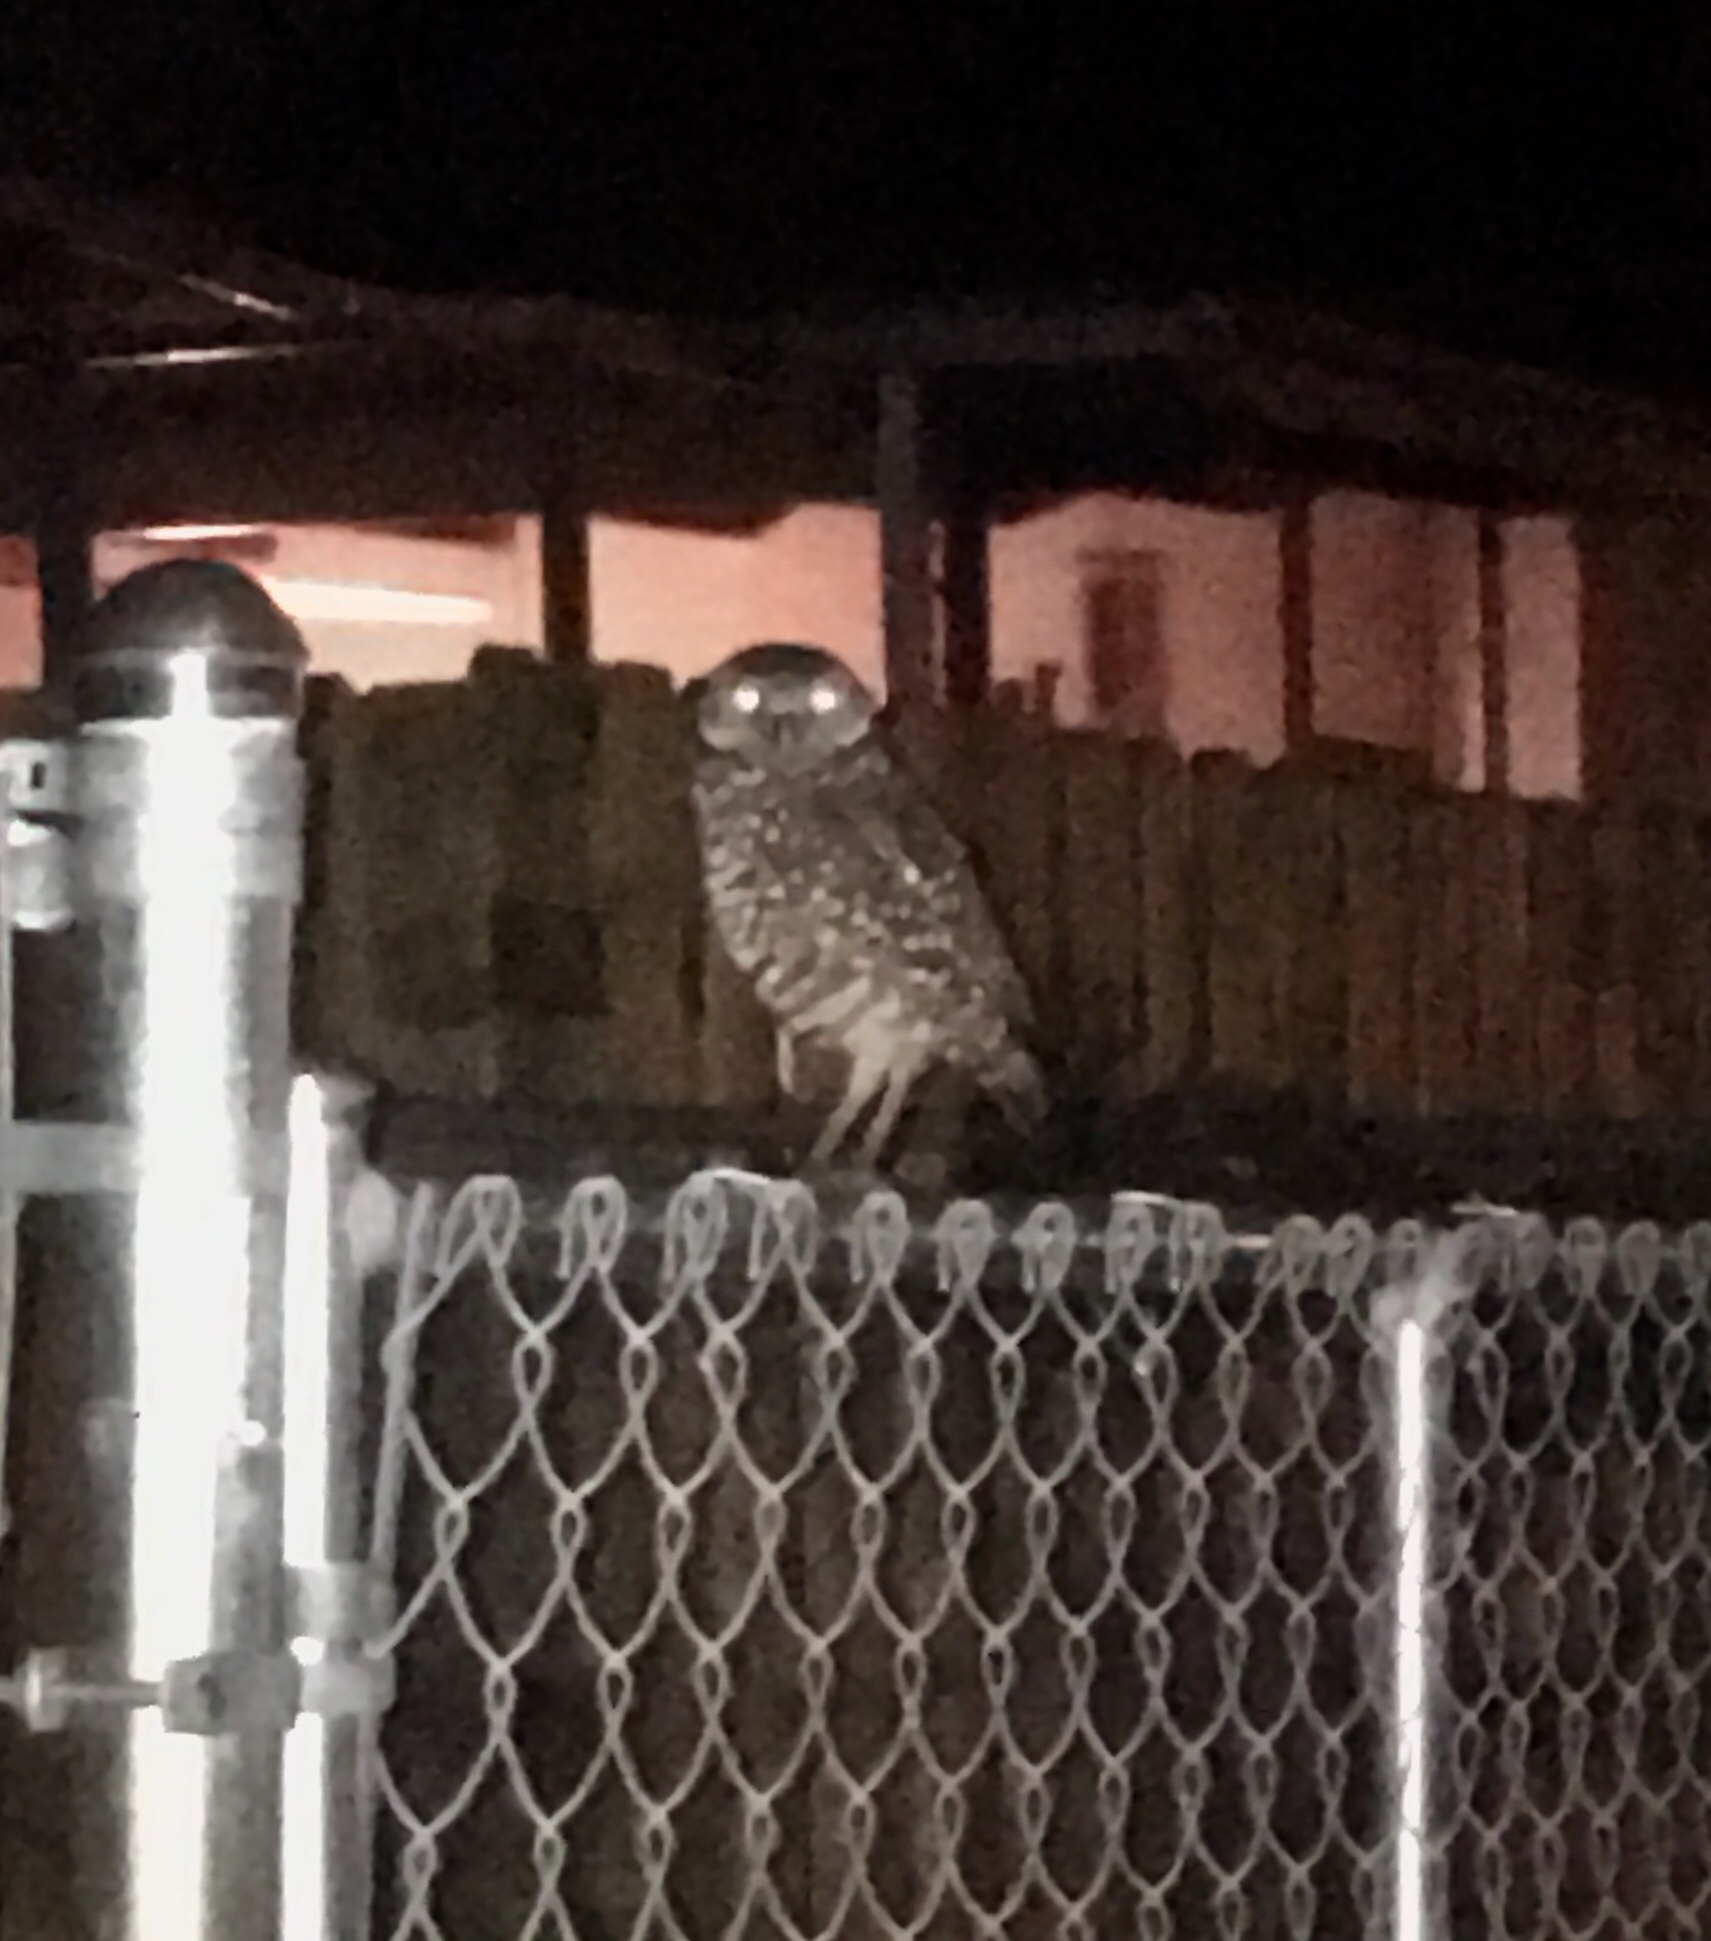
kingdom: Animalia
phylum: Chordata
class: Aves
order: Strigiformes
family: Strigidae
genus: Athene
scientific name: Athene cunicularia
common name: Burrowing owl
